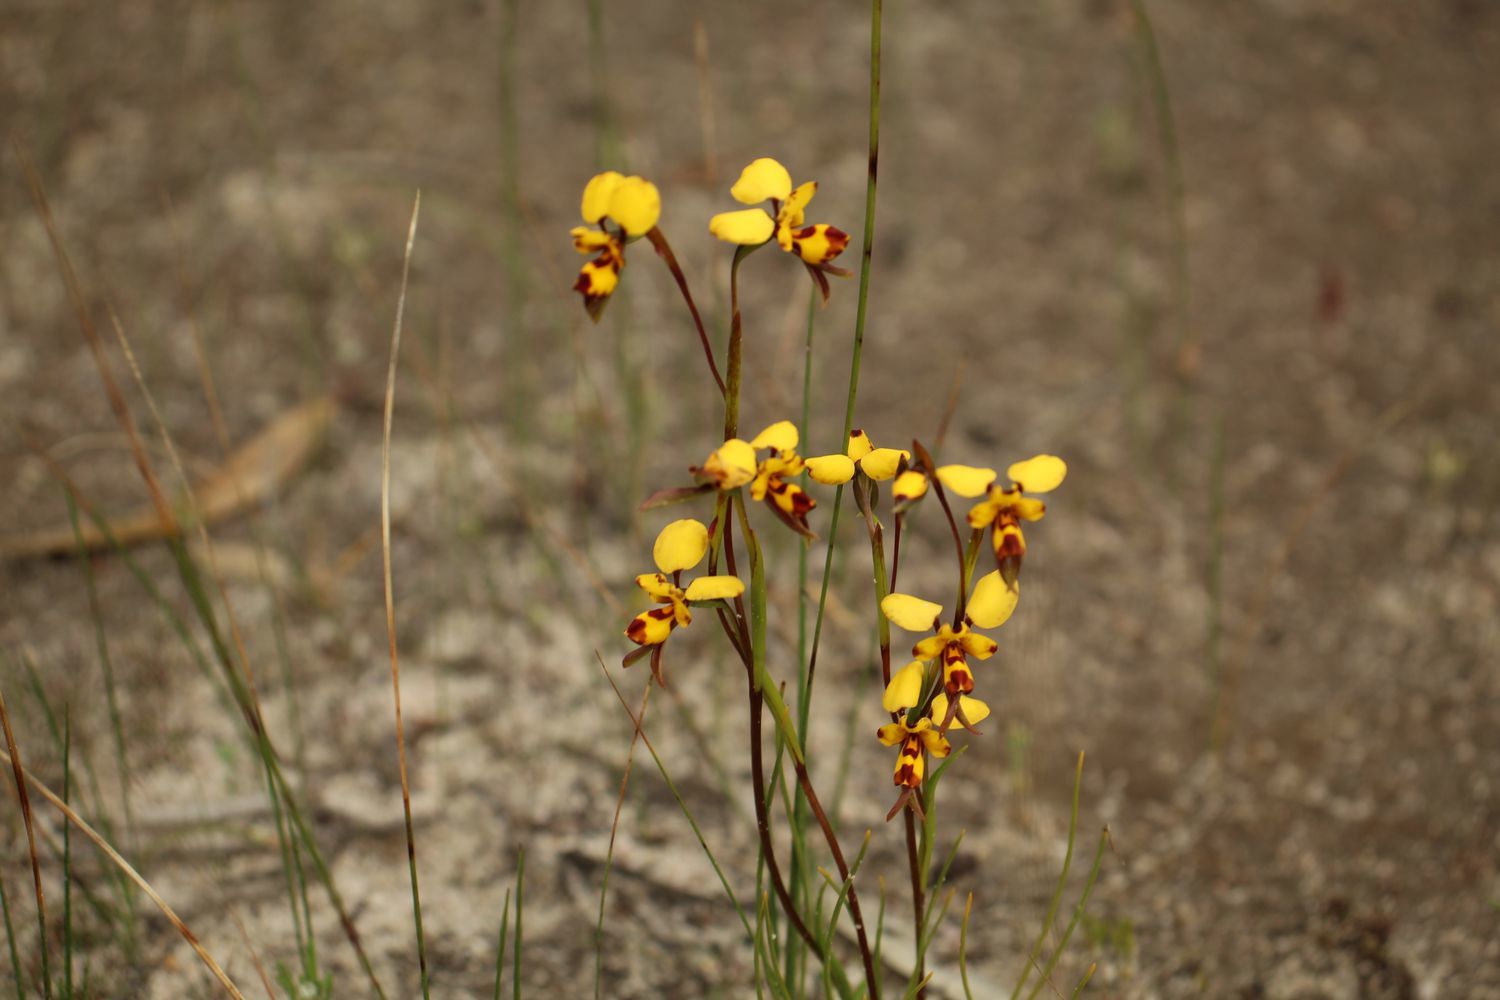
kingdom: Plantae
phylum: Tracheophyta
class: Liliopsida
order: Asparagales
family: Orchidaceae
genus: Diuris
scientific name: Diuris decrementum
